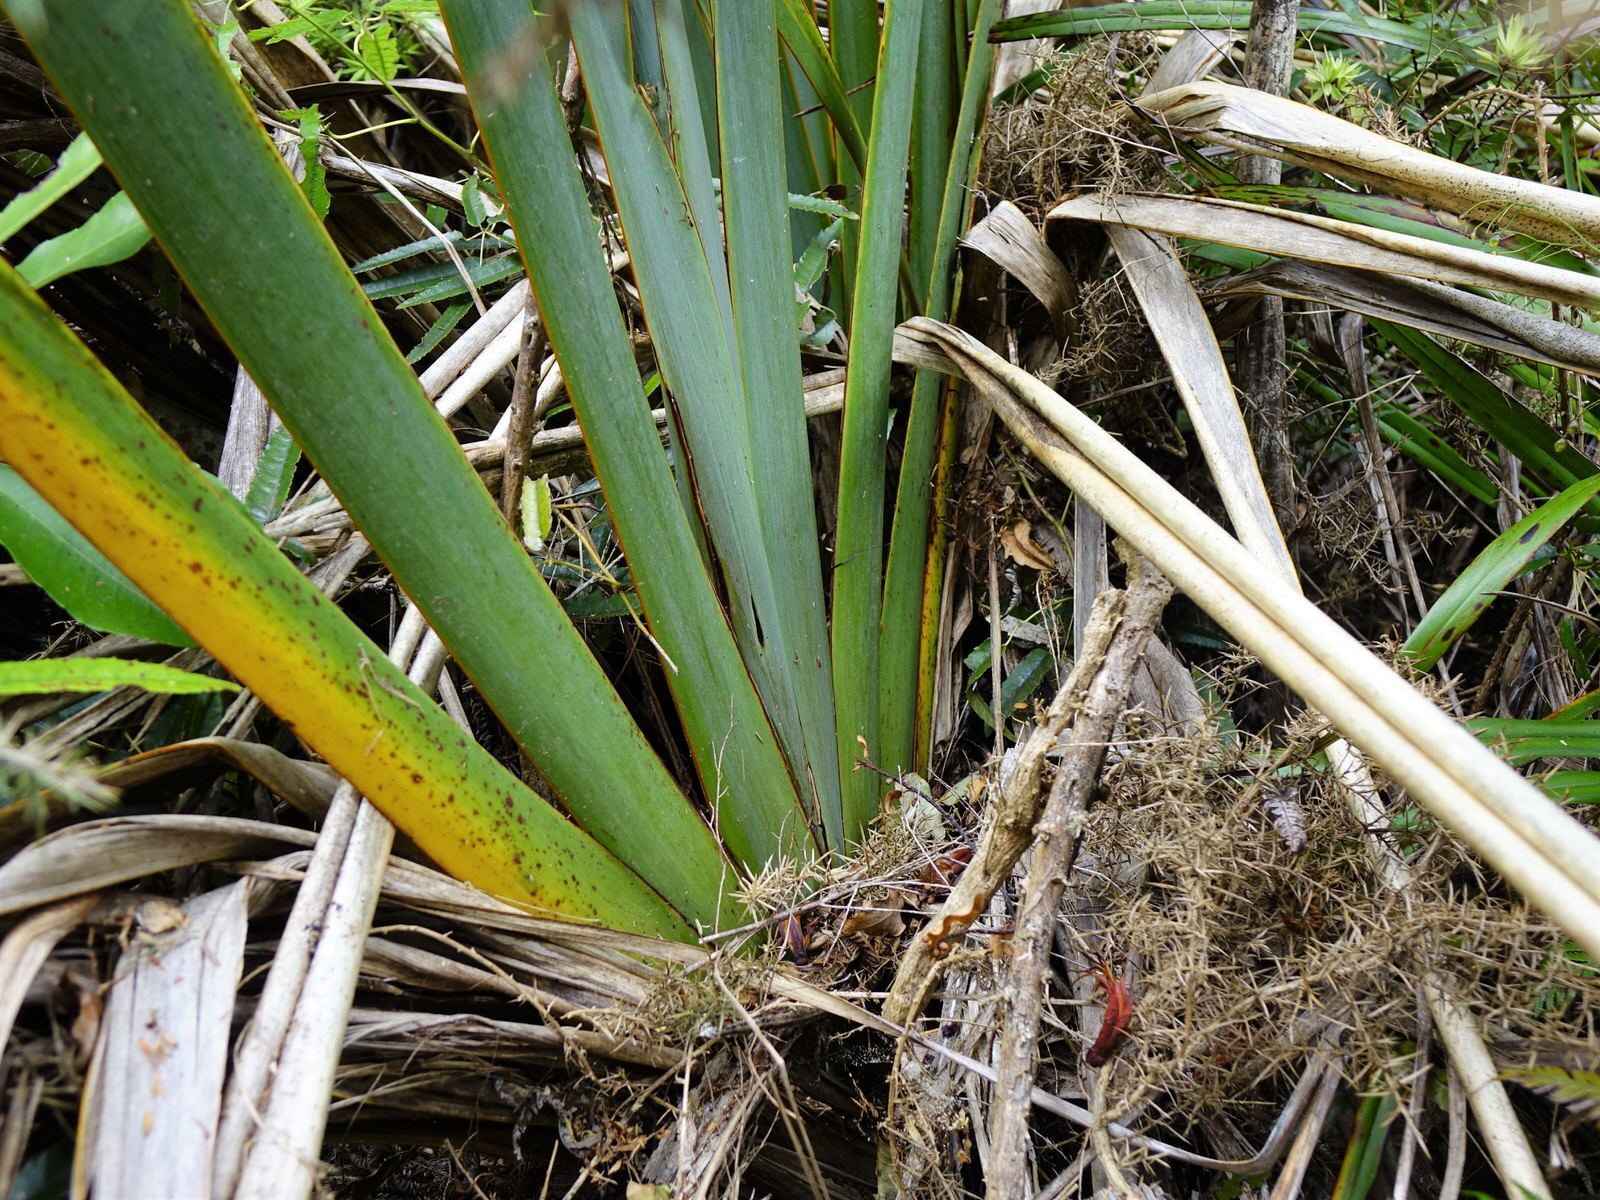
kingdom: Plantae
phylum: Tracheophyta
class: Liliopsida
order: Asparagales
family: Asphodelaceae
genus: Phormium
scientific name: Phormium tenax
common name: New zealand flax
